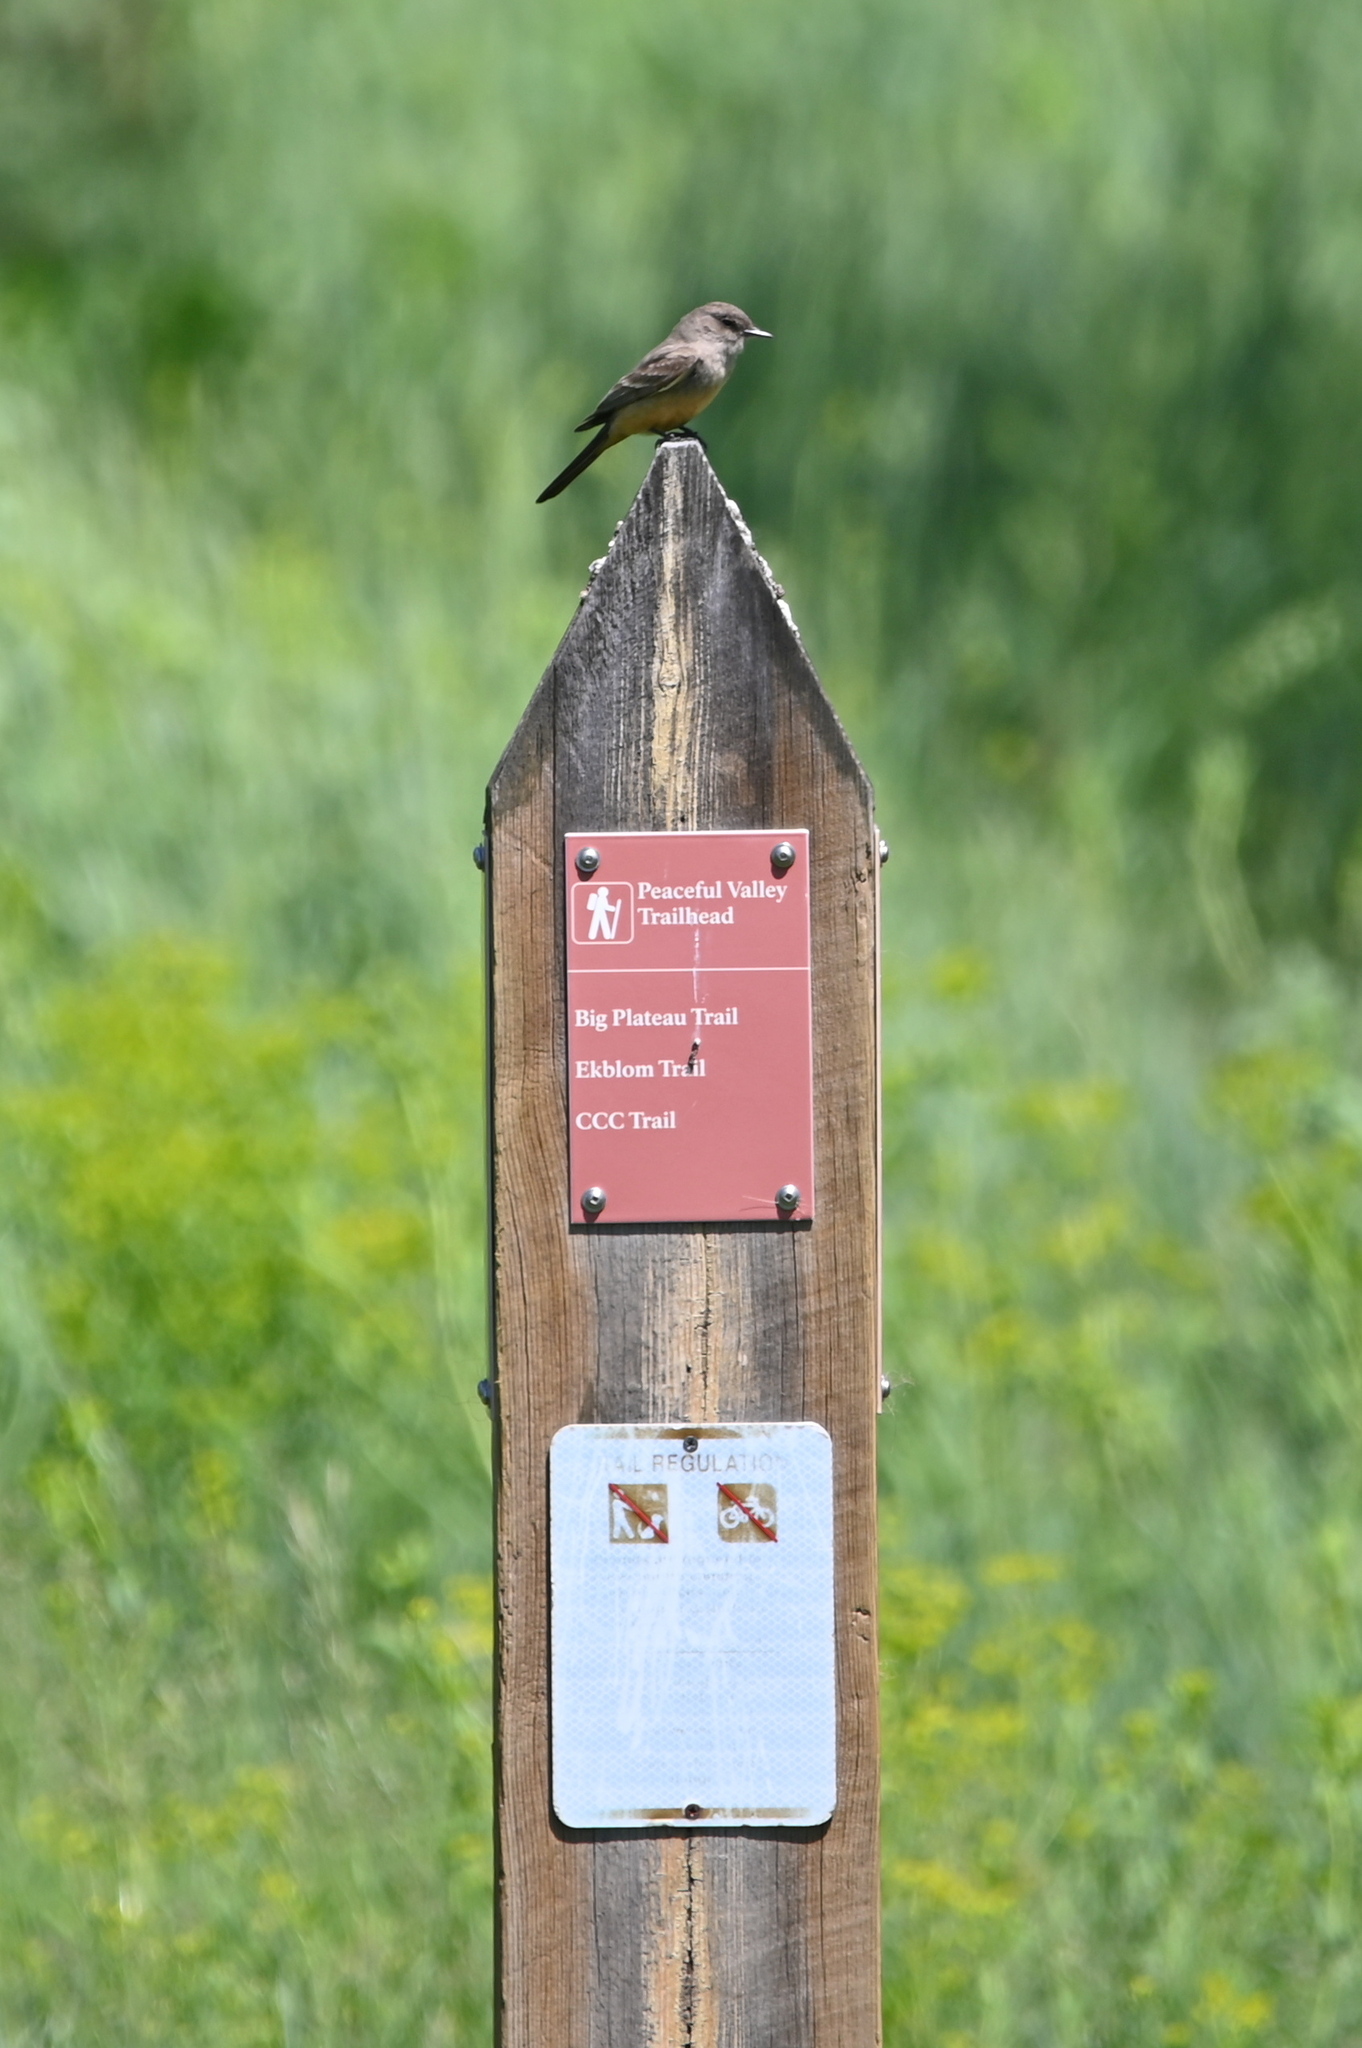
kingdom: Animalia
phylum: Chordata
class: Aves
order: Passeriformes
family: Tyrannidae
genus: Sayornis
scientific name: Sayornis saya
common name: Say's phoebe
